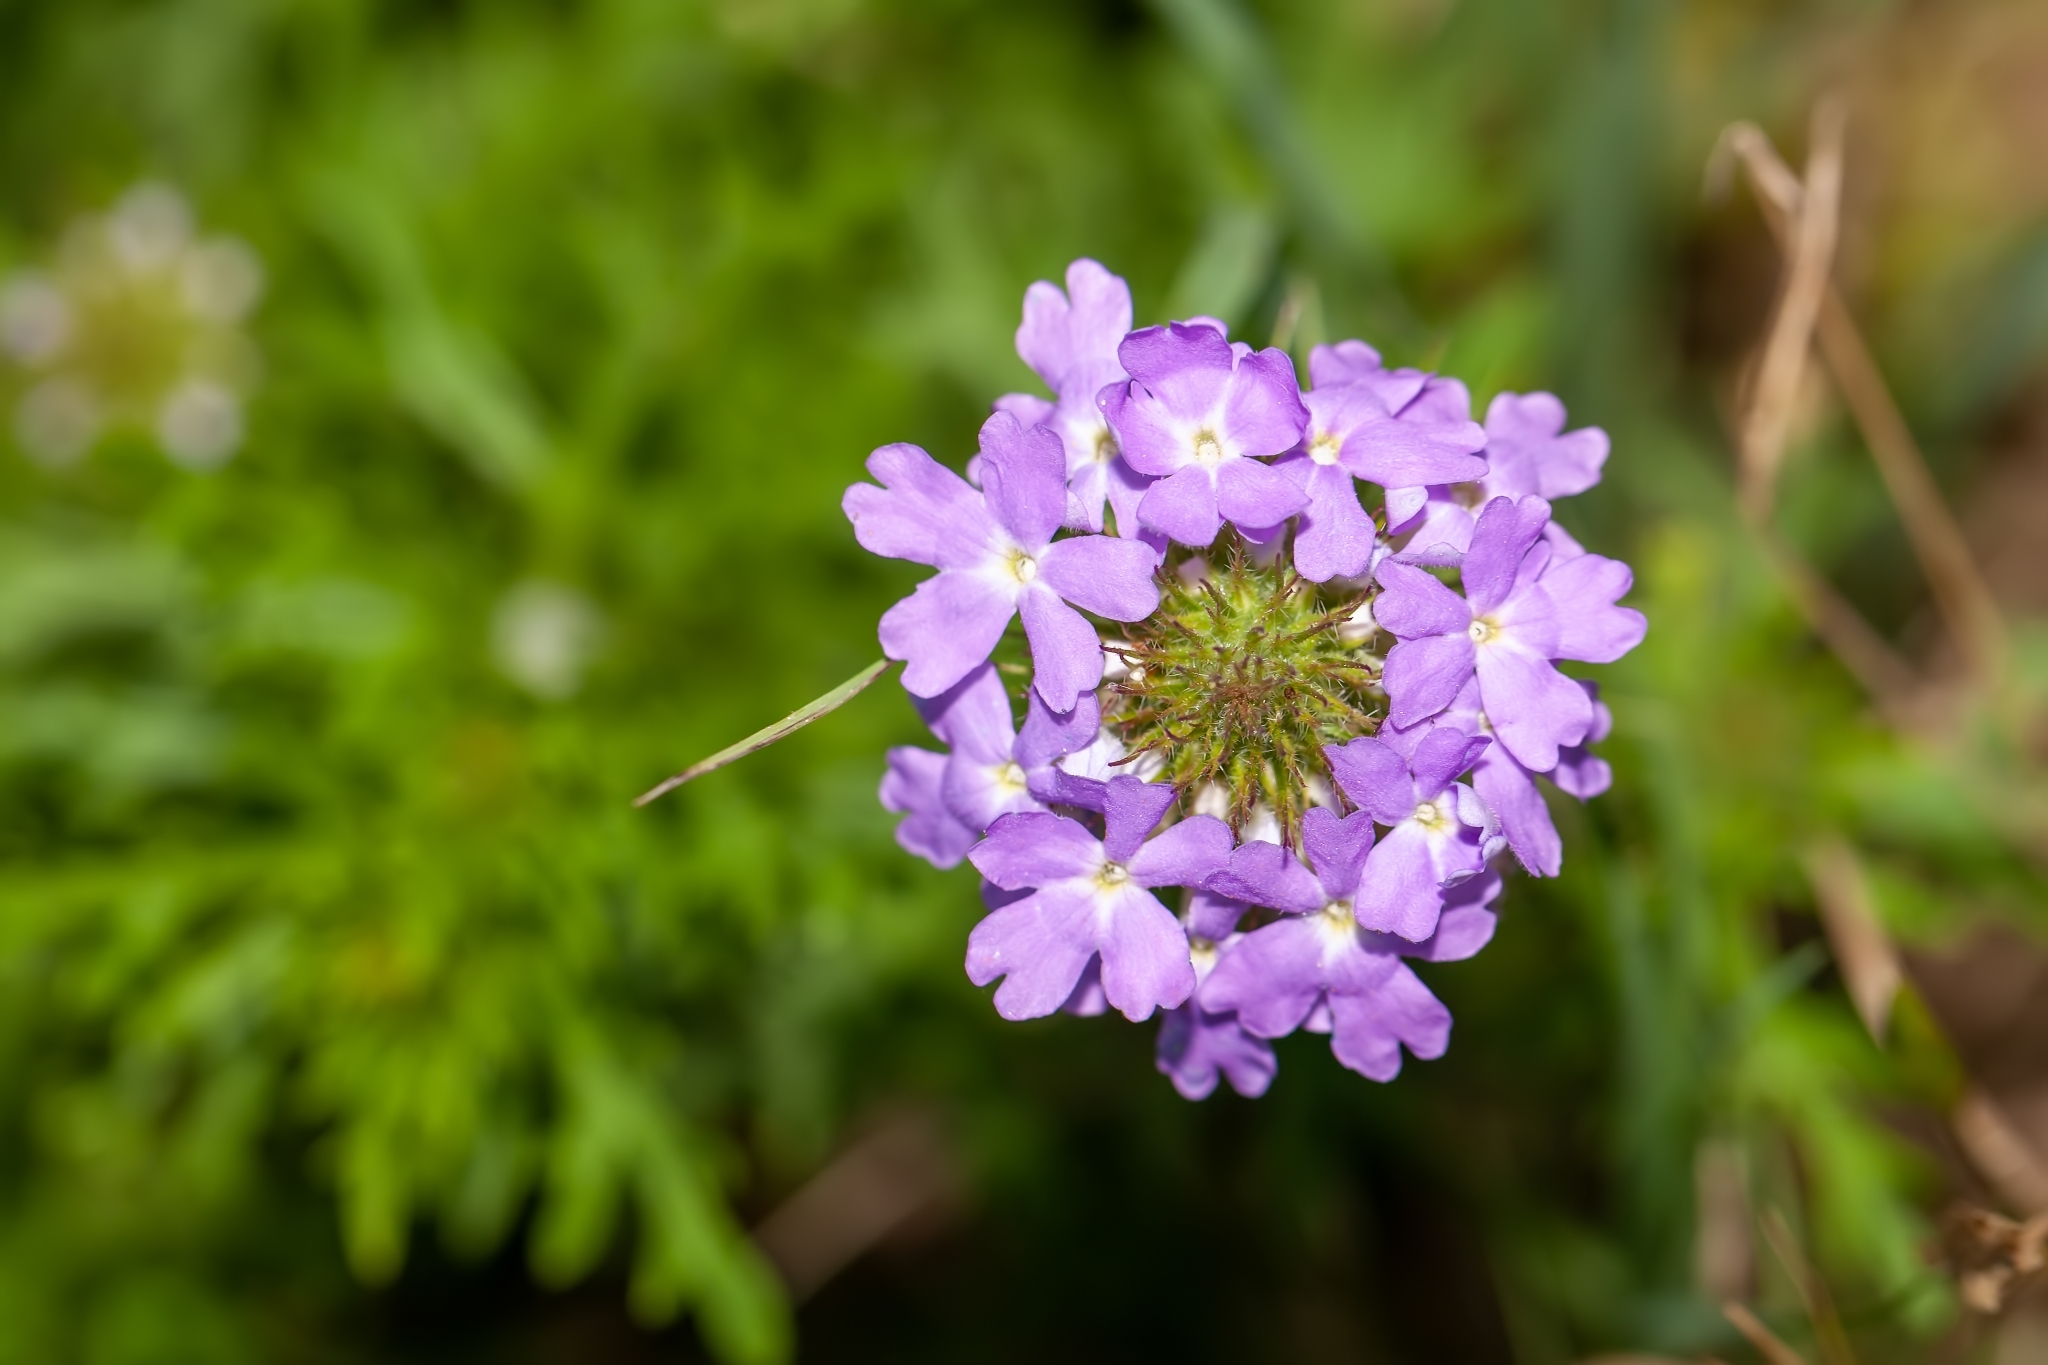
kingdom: Plantae
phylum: Tracheophyta
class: Magnoliopsida
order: Lamiales
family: Verbenaceae
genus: Verbena
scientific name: Verbena bipinnatifida
